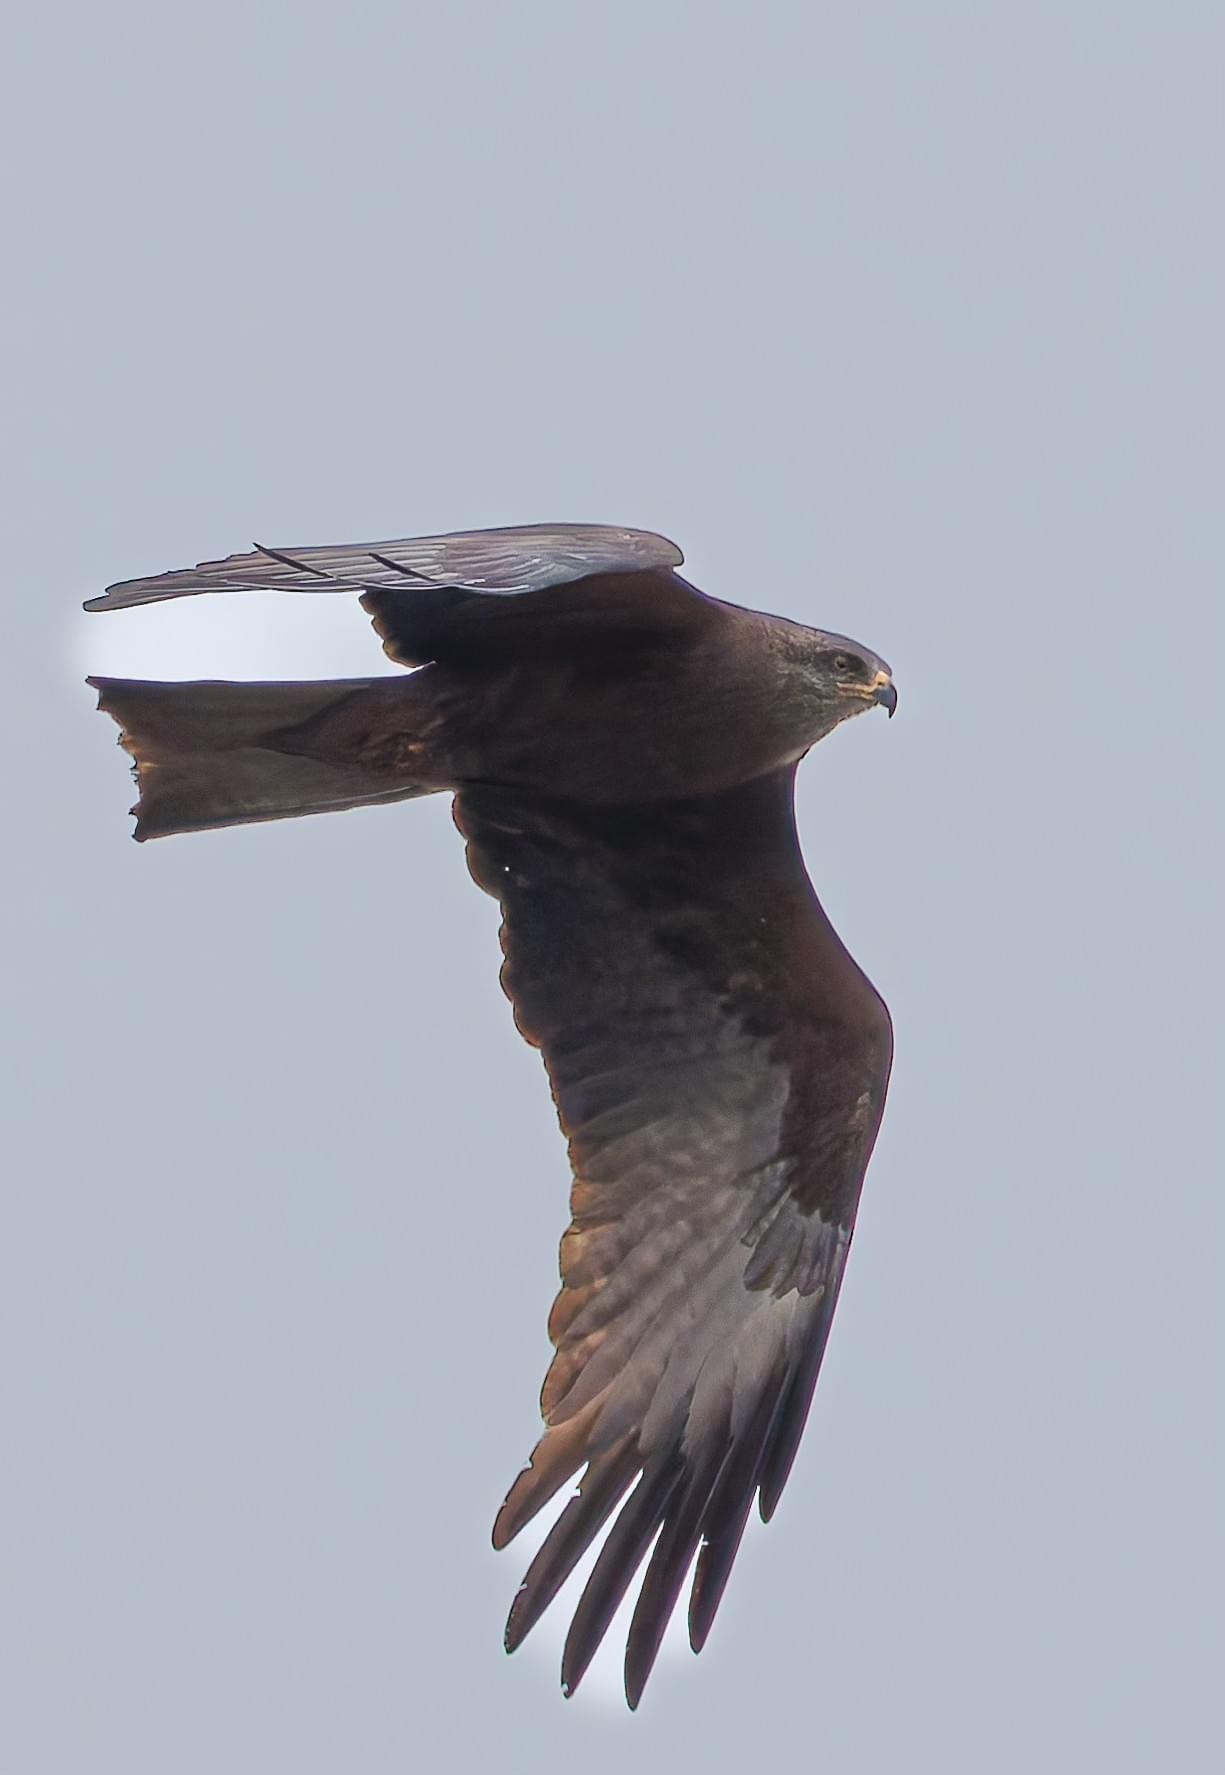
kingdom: Animalia
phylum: Chordata
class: Aves
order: Accipitriformes
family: Accipitridae
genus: Milvus
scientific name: Milvus migrans
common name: Black kite
